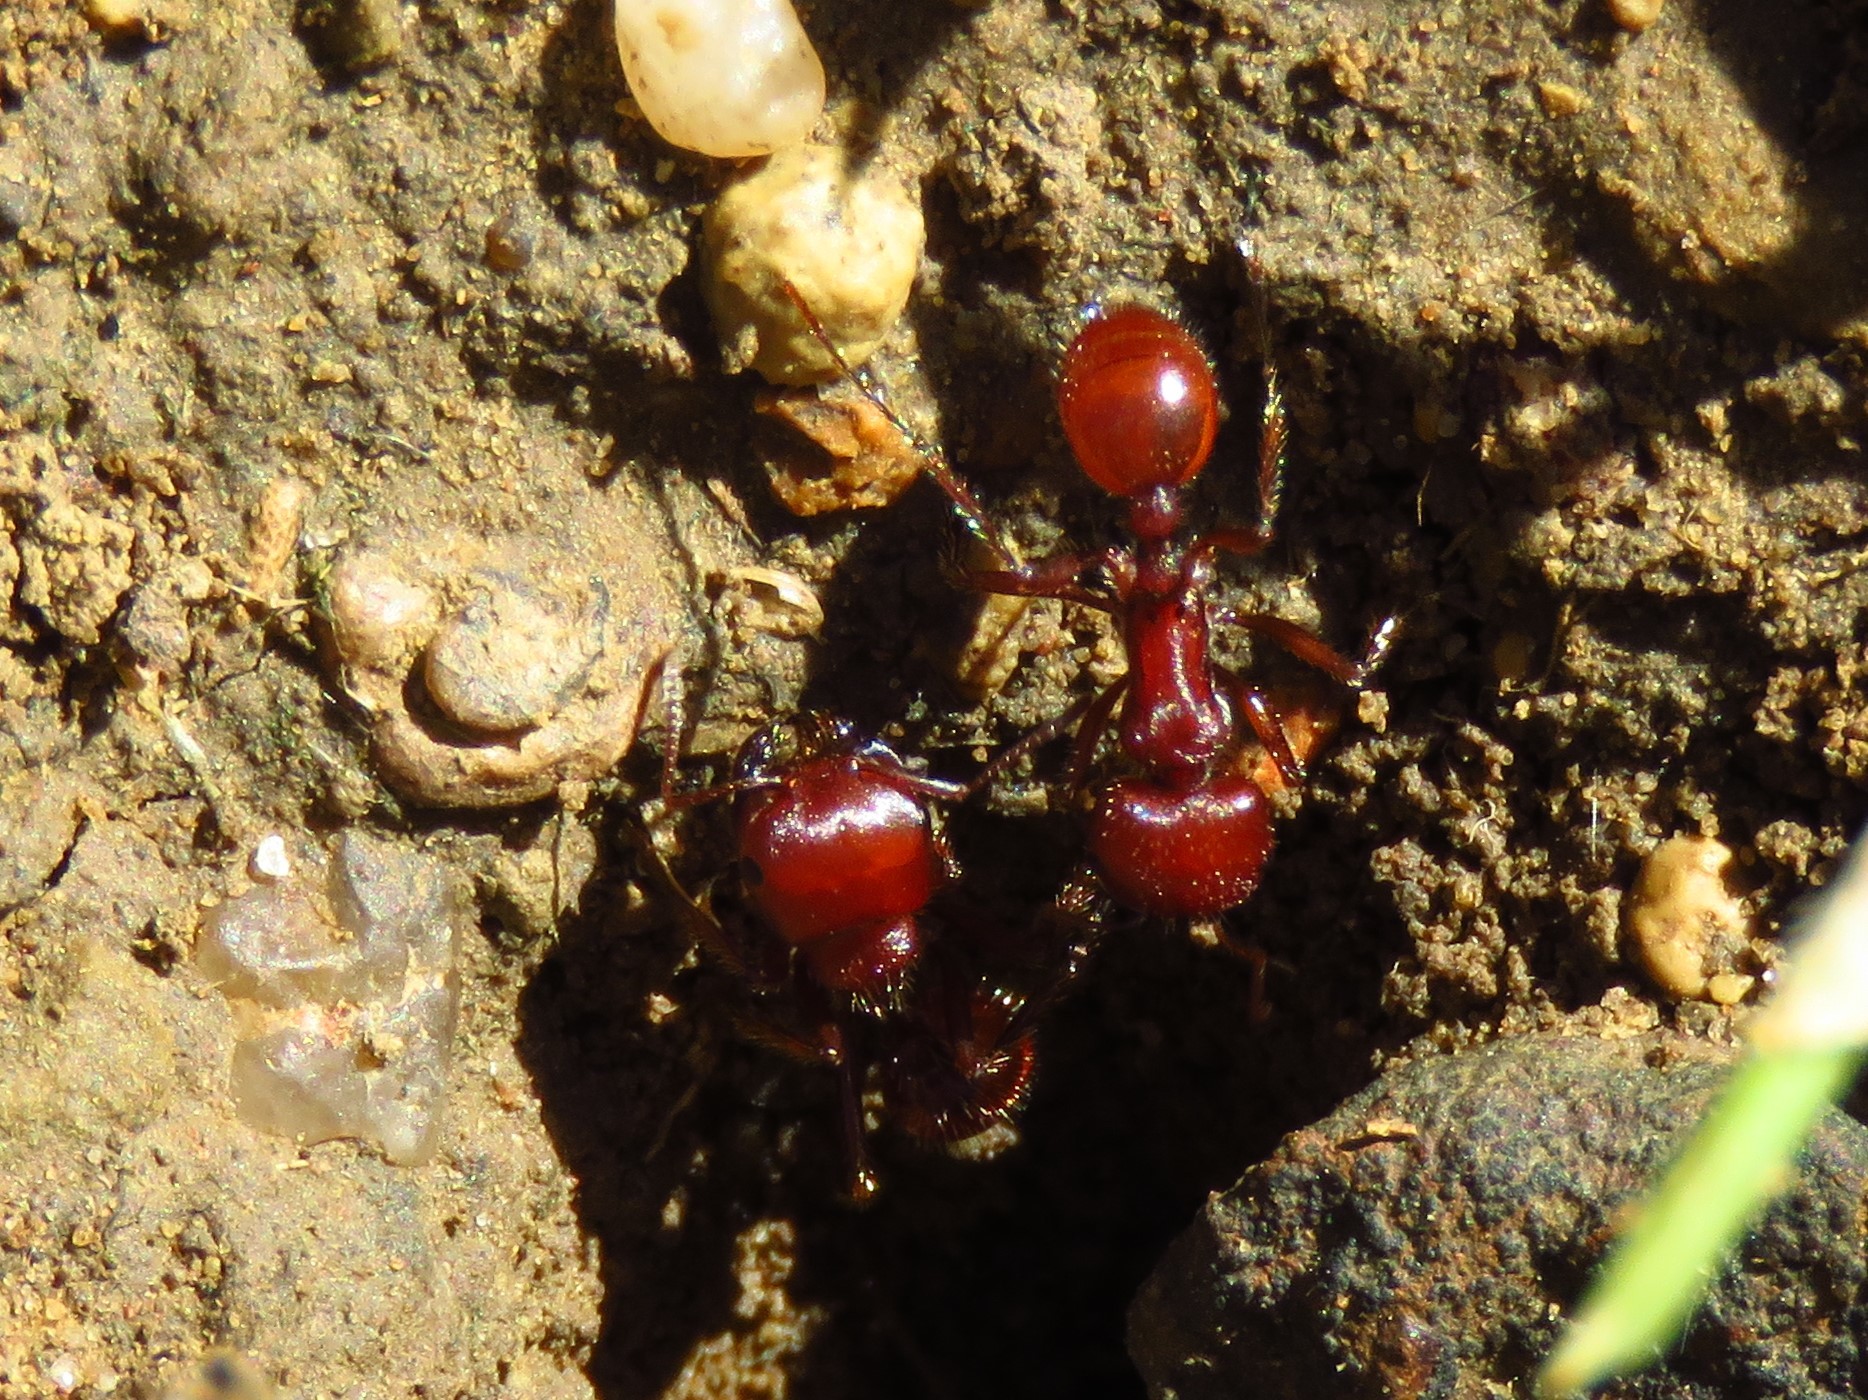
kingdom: Animalia
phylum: Arthropoda
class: Insecta
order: Hymenoptera
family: Formicidae
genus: Pogonomyrmex
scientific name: Pogonomyrmex barbatus
